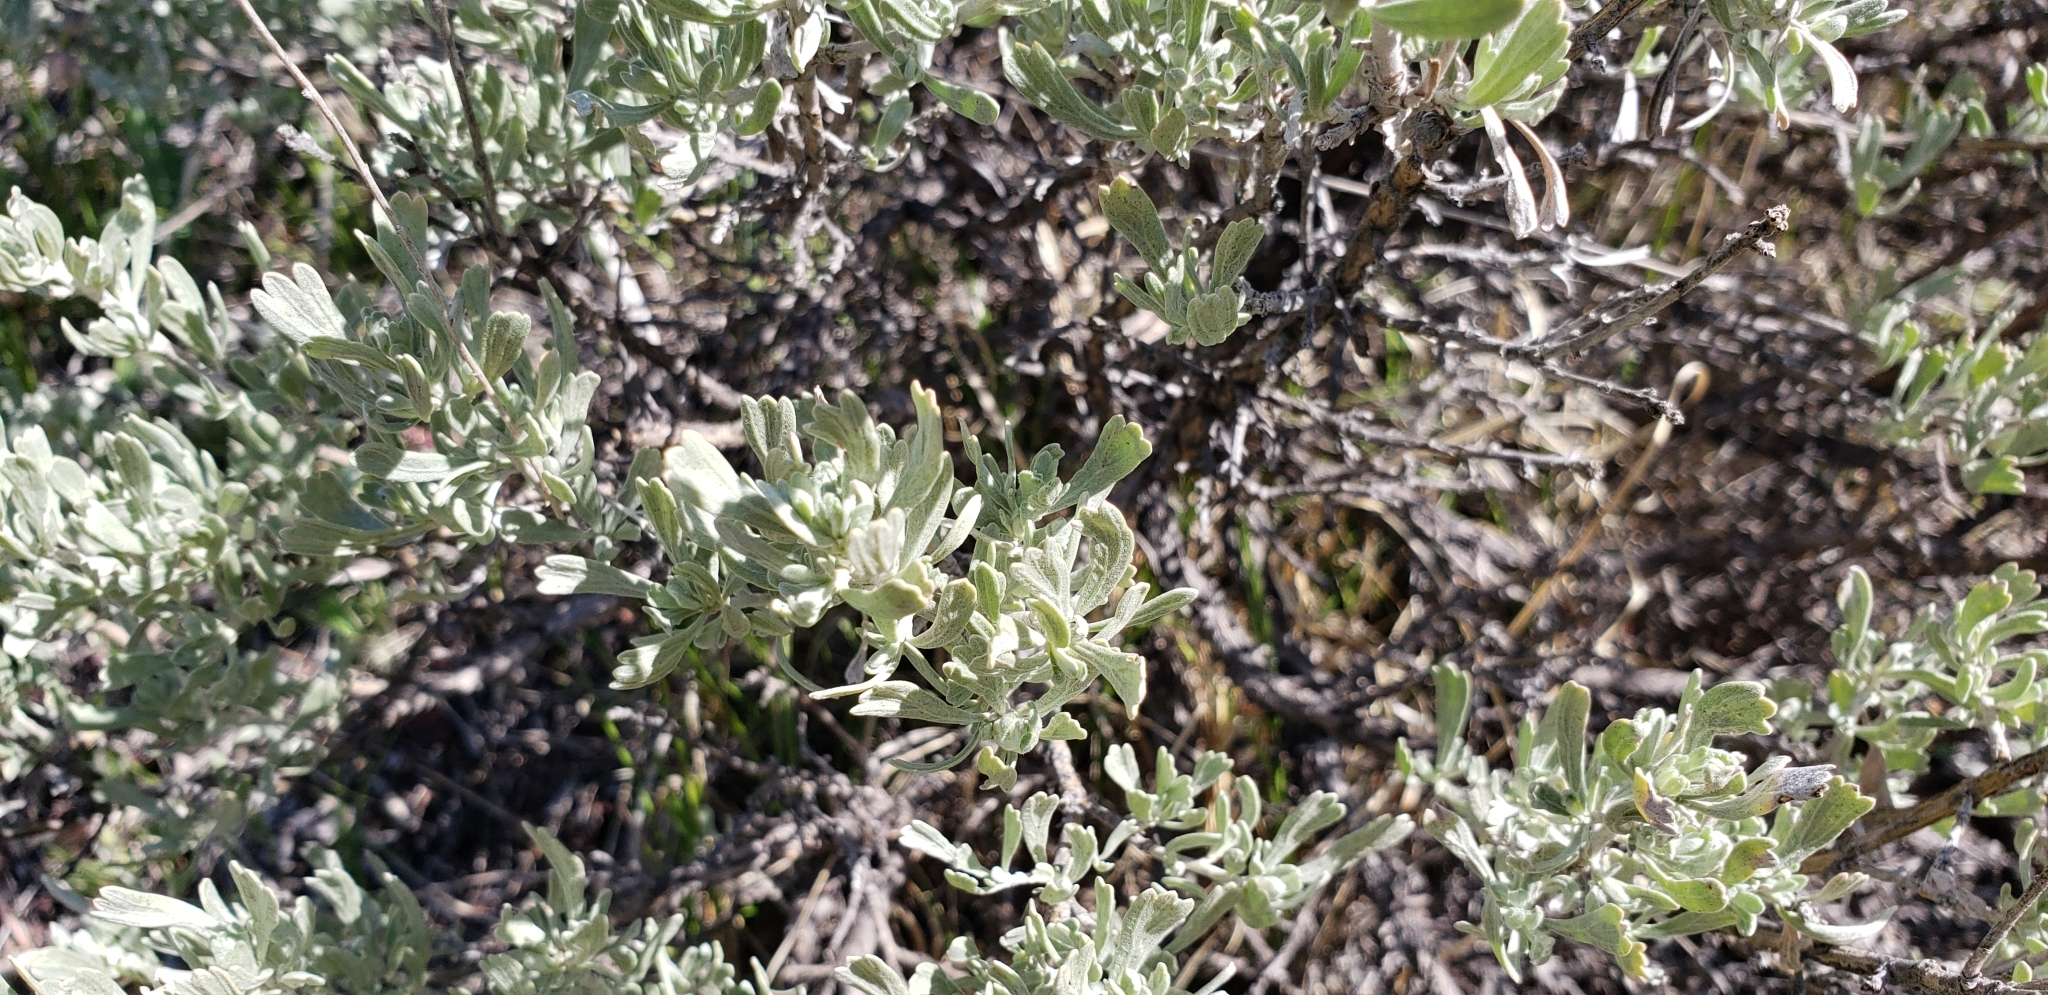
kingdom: Plantae
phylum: Tracheophyta
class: Magnoliopsida
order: Asterales
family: Asteraceae
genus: Artemisia
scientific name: Artemisia tridentata
